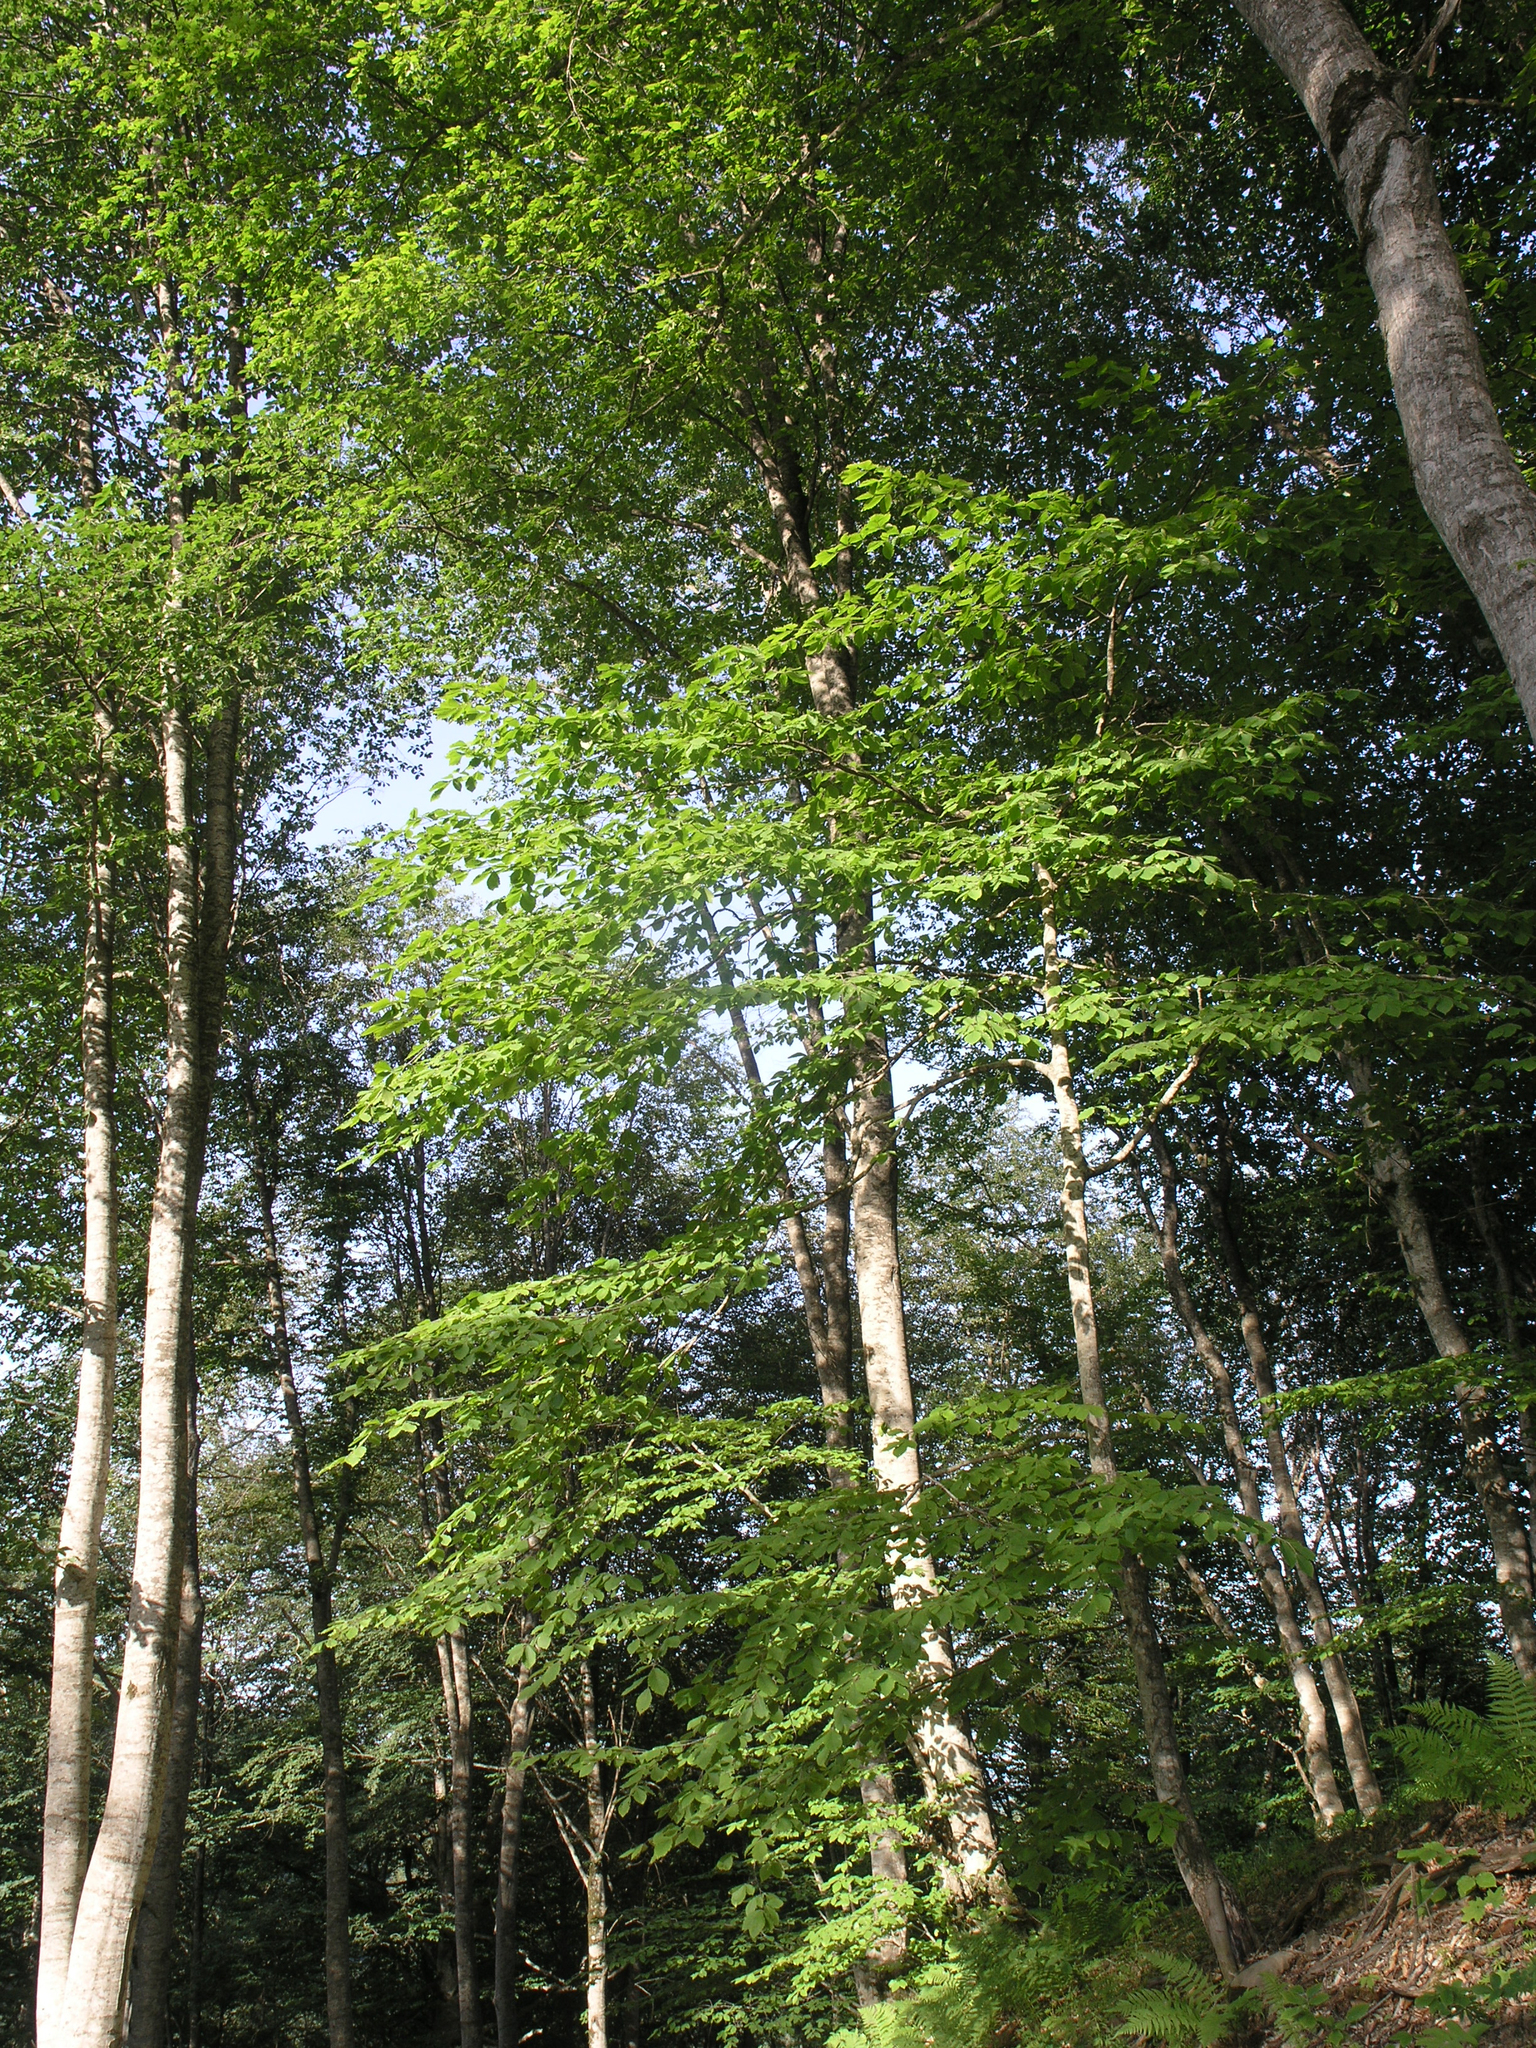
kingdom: Plantae
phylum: Tracheophyta
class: Magnoliopsida
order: Fagales
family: Fagaceae
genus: Fagus
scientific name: Fagus orientalis
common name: Oriental beech
